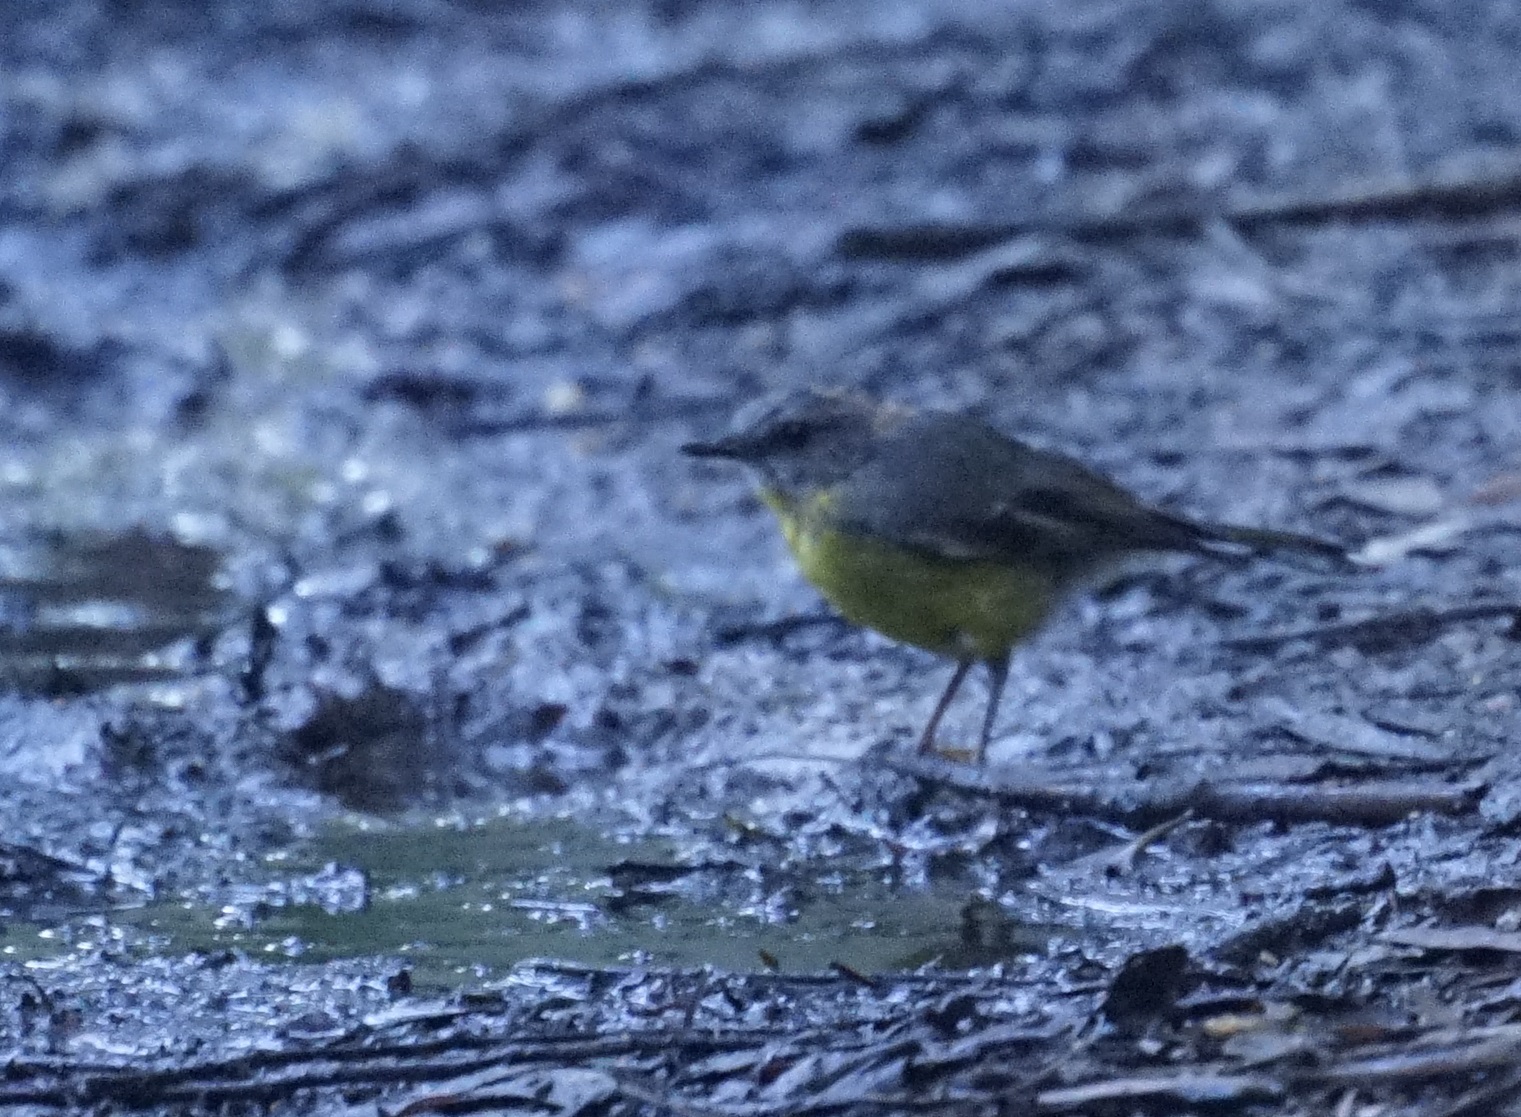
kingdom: Animalia
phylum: Chordata
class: Aves
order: Passeriformes
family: Petroicidae
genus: Eopsaltria
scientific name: Eopsaltria australis
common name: Eastern yellow robin
